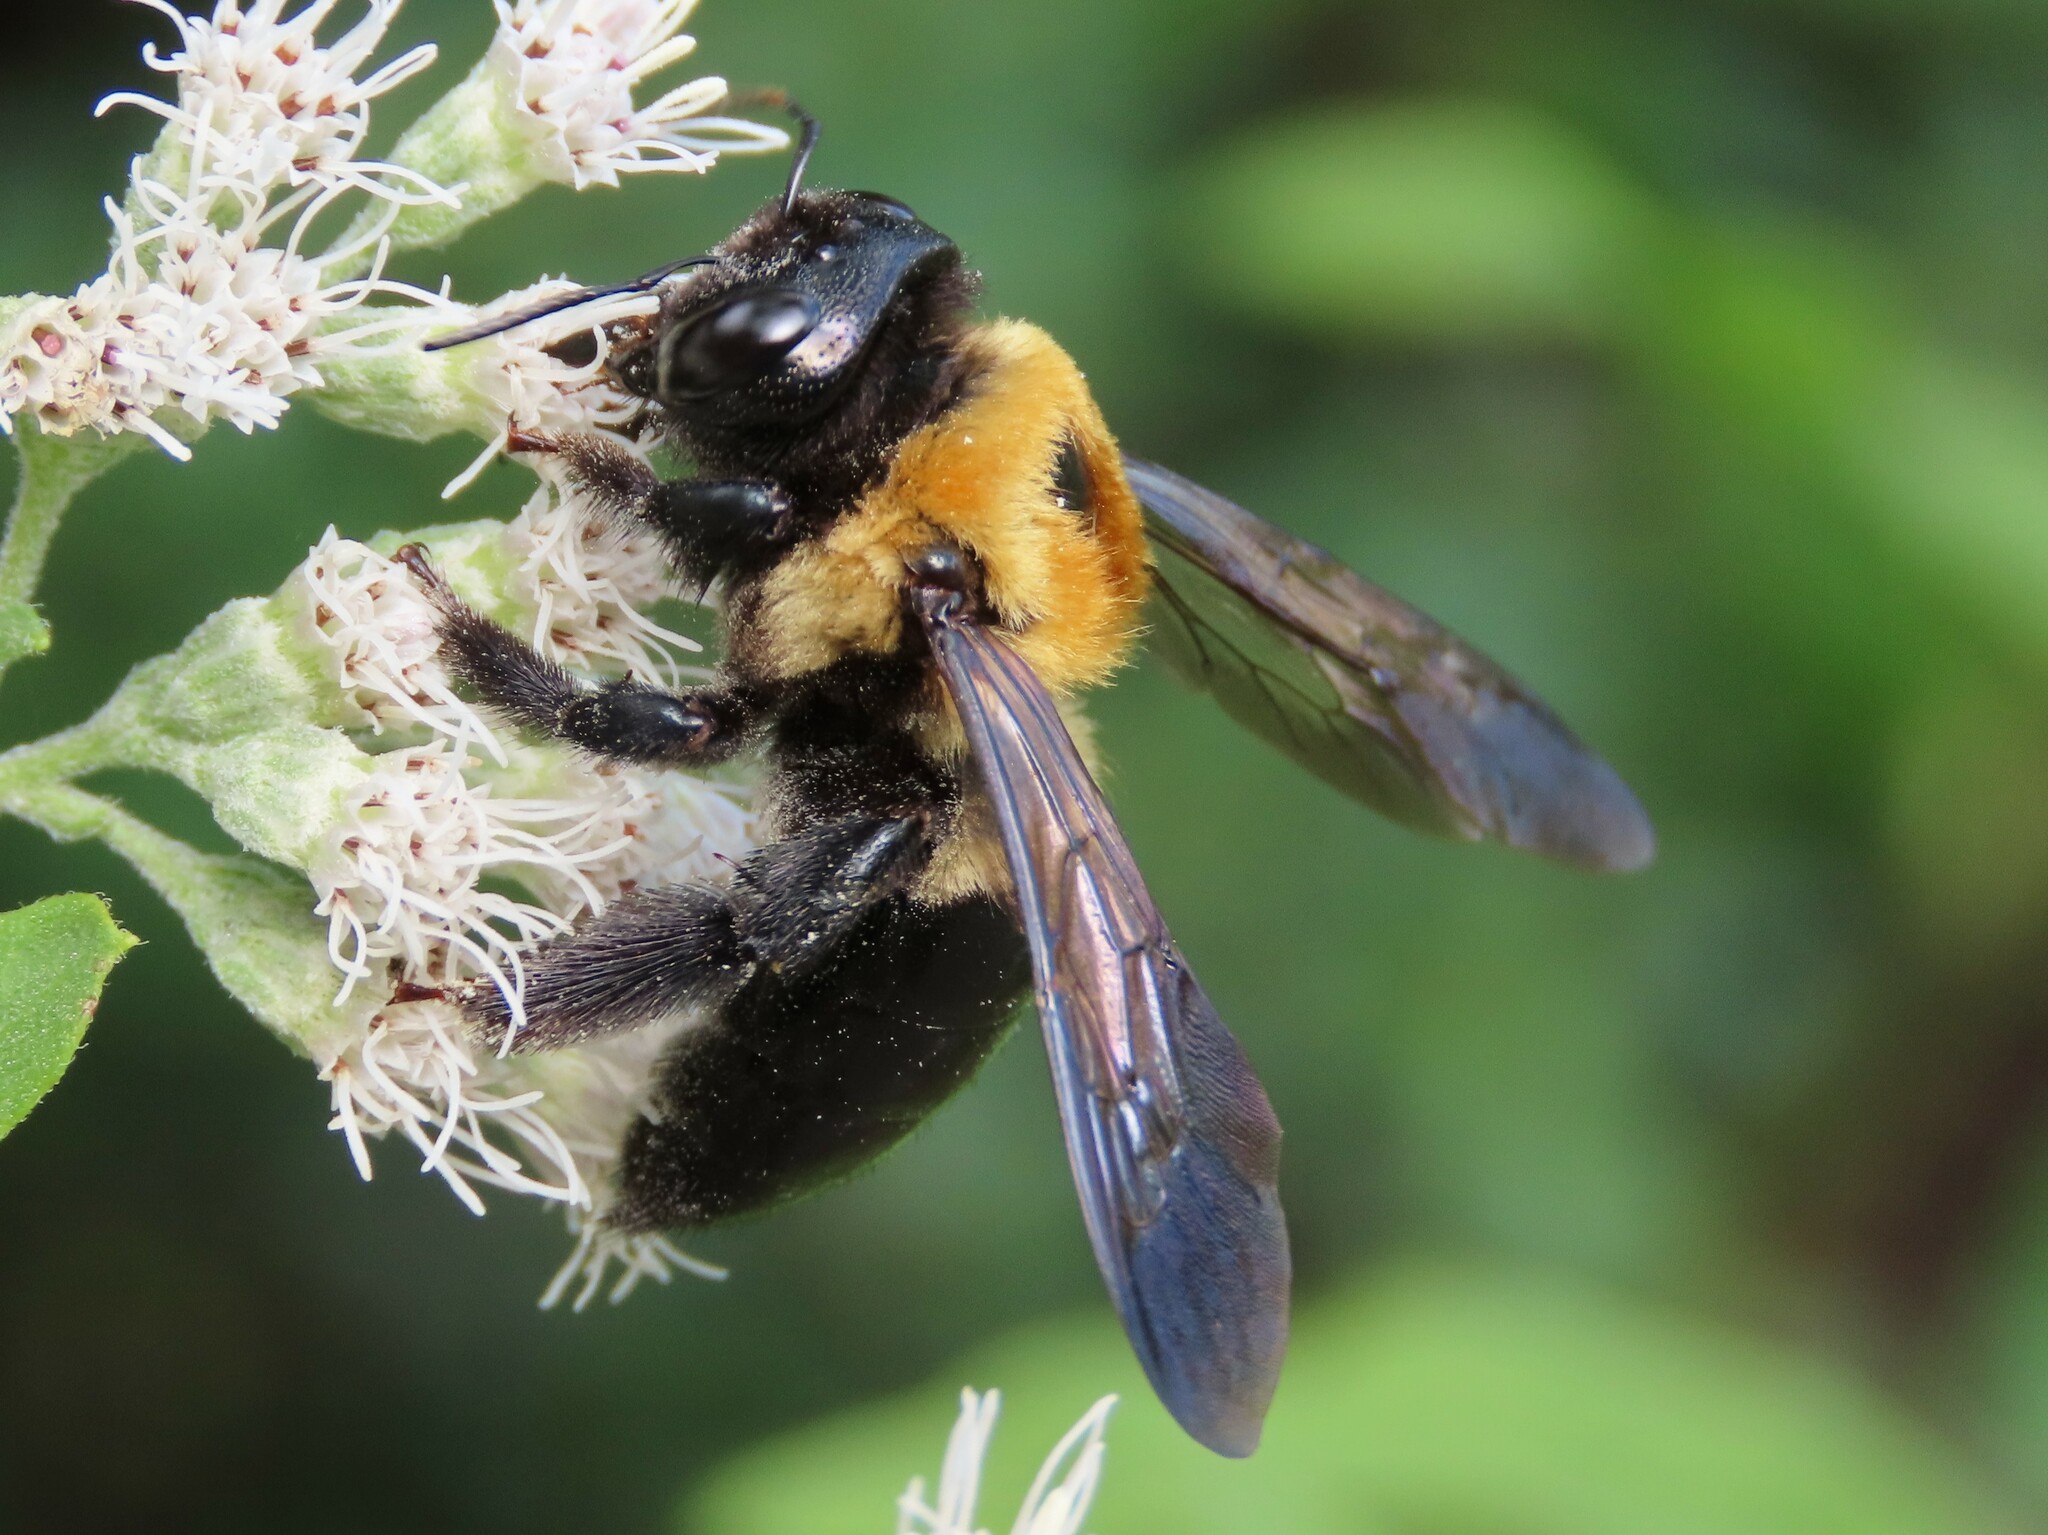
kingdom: Animalia
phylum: Arthropoda
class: Insecta
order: Hymenoptera
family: Apidae
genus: Xylocopa
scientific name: Xylocopa virginica
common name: Carpenter bee
